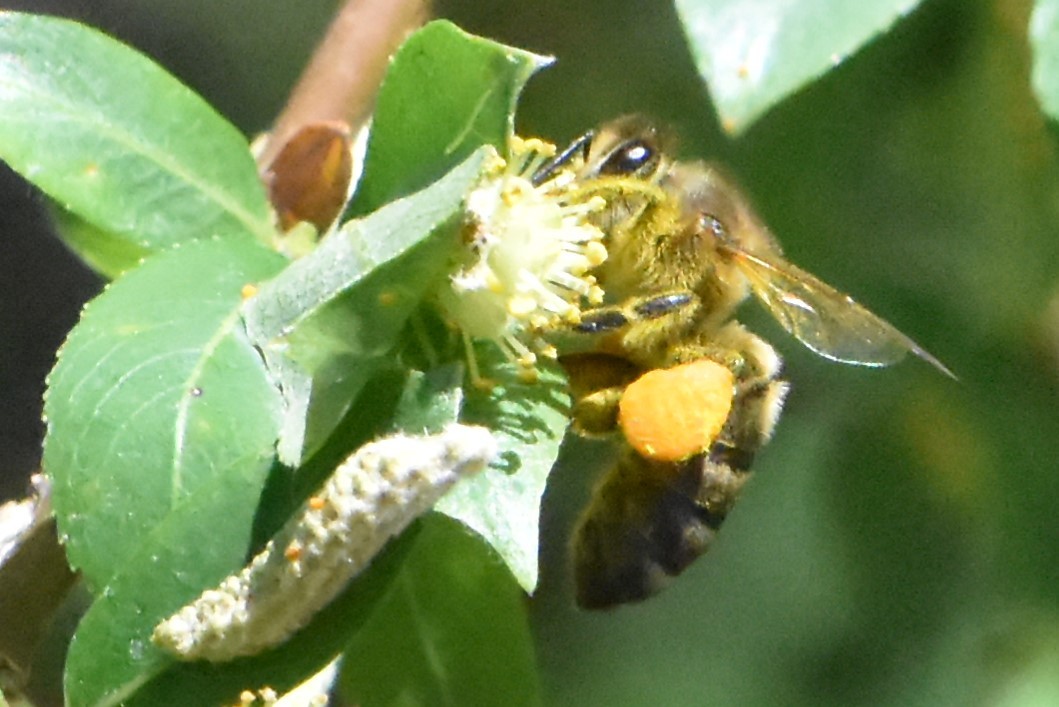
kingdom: Animalia
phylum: Arthropoda
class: Insecta
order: Hymenoptera
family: Apidae
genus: Apis
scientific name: Apis mellifera
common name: Honey bee
